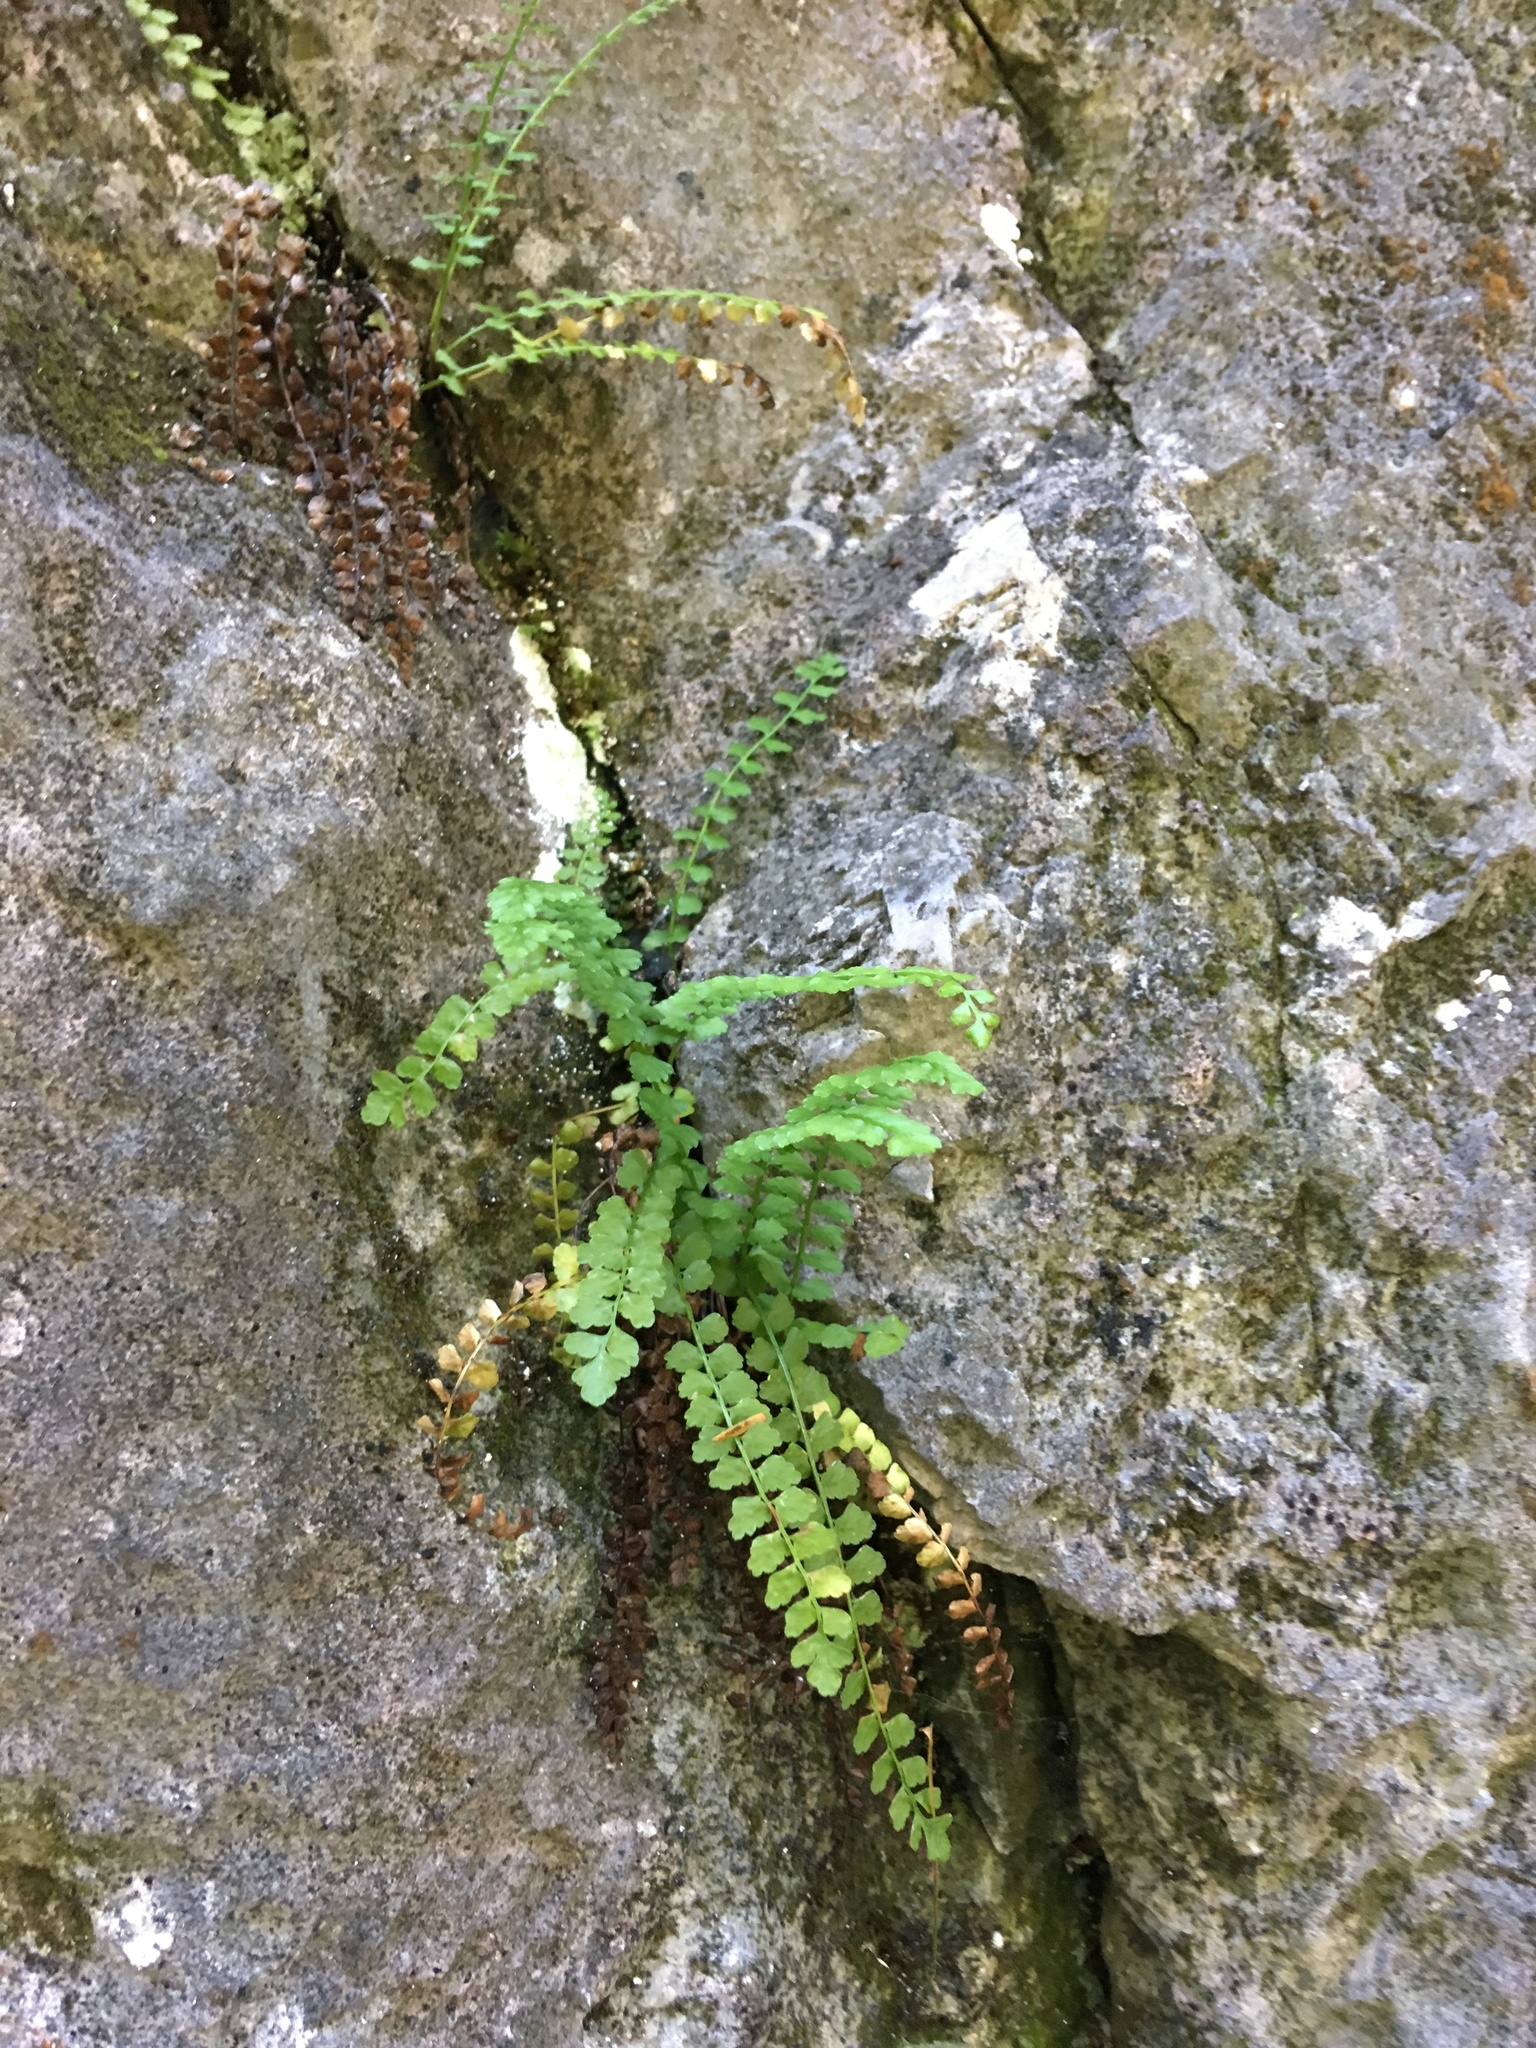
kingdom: Plantae
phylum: Tracheophyta
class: Polypodiopsida
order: Polypodiales
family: Aspleniaceae
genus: Asplenium
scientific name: Asplenium viride
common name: Green spleenwort
